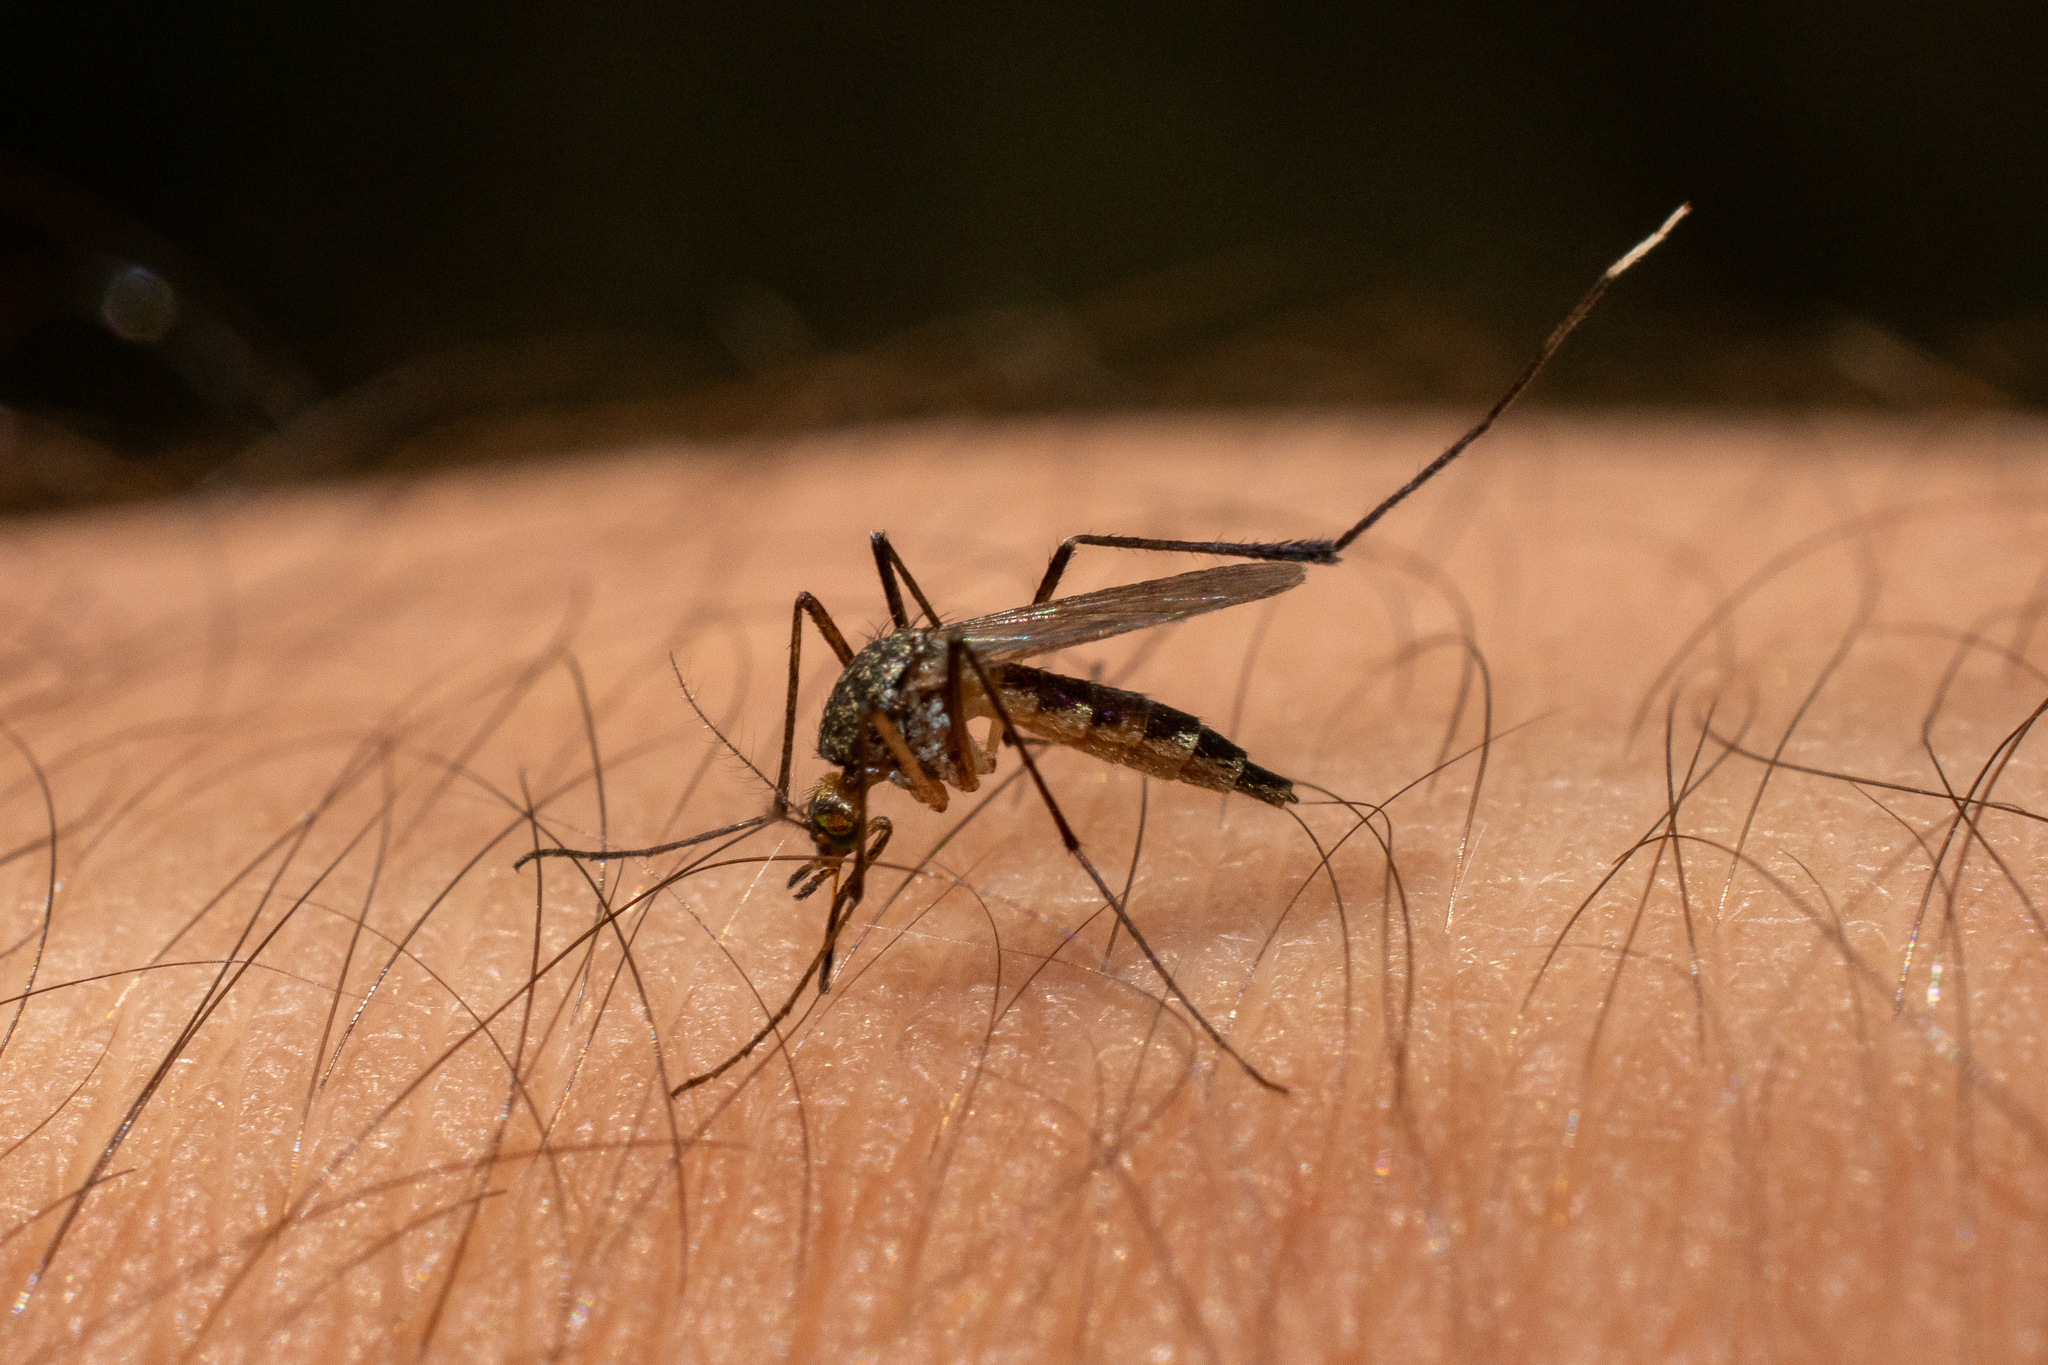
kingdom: Animalia
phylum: Arthropoda
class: Insecta
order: Diptera
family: Culicidae
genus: Psorophora
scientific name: Psorophora ferox
